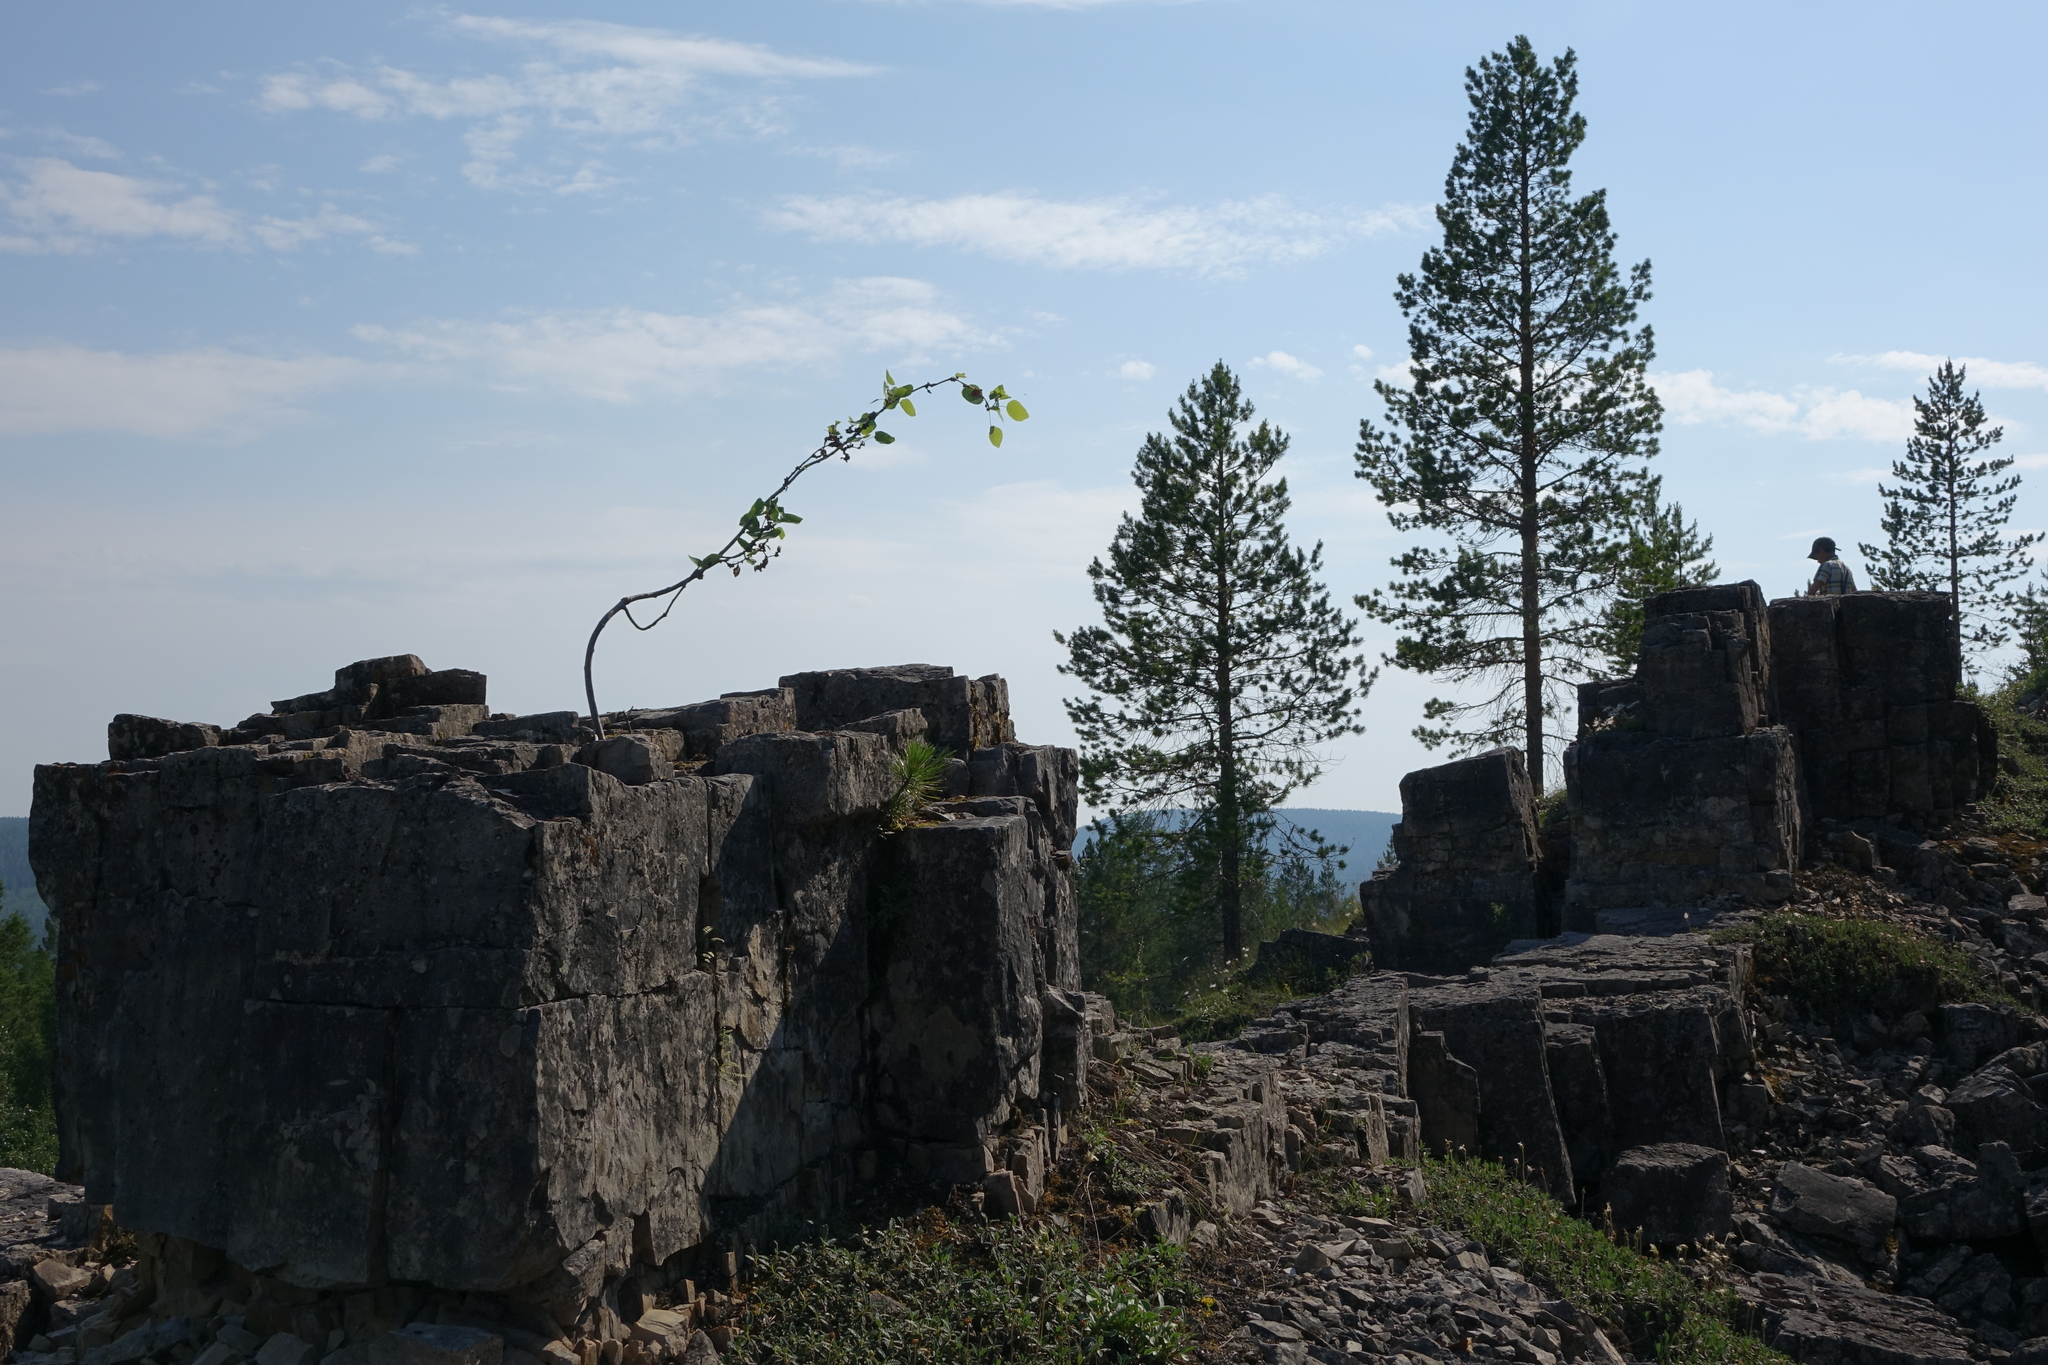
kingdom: Plantae
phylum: Tracheophyta
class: Pinopsida
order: Pinales
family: Pinaceae
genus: Pinus
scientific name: Pinus sylvestris
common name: Scots pine
